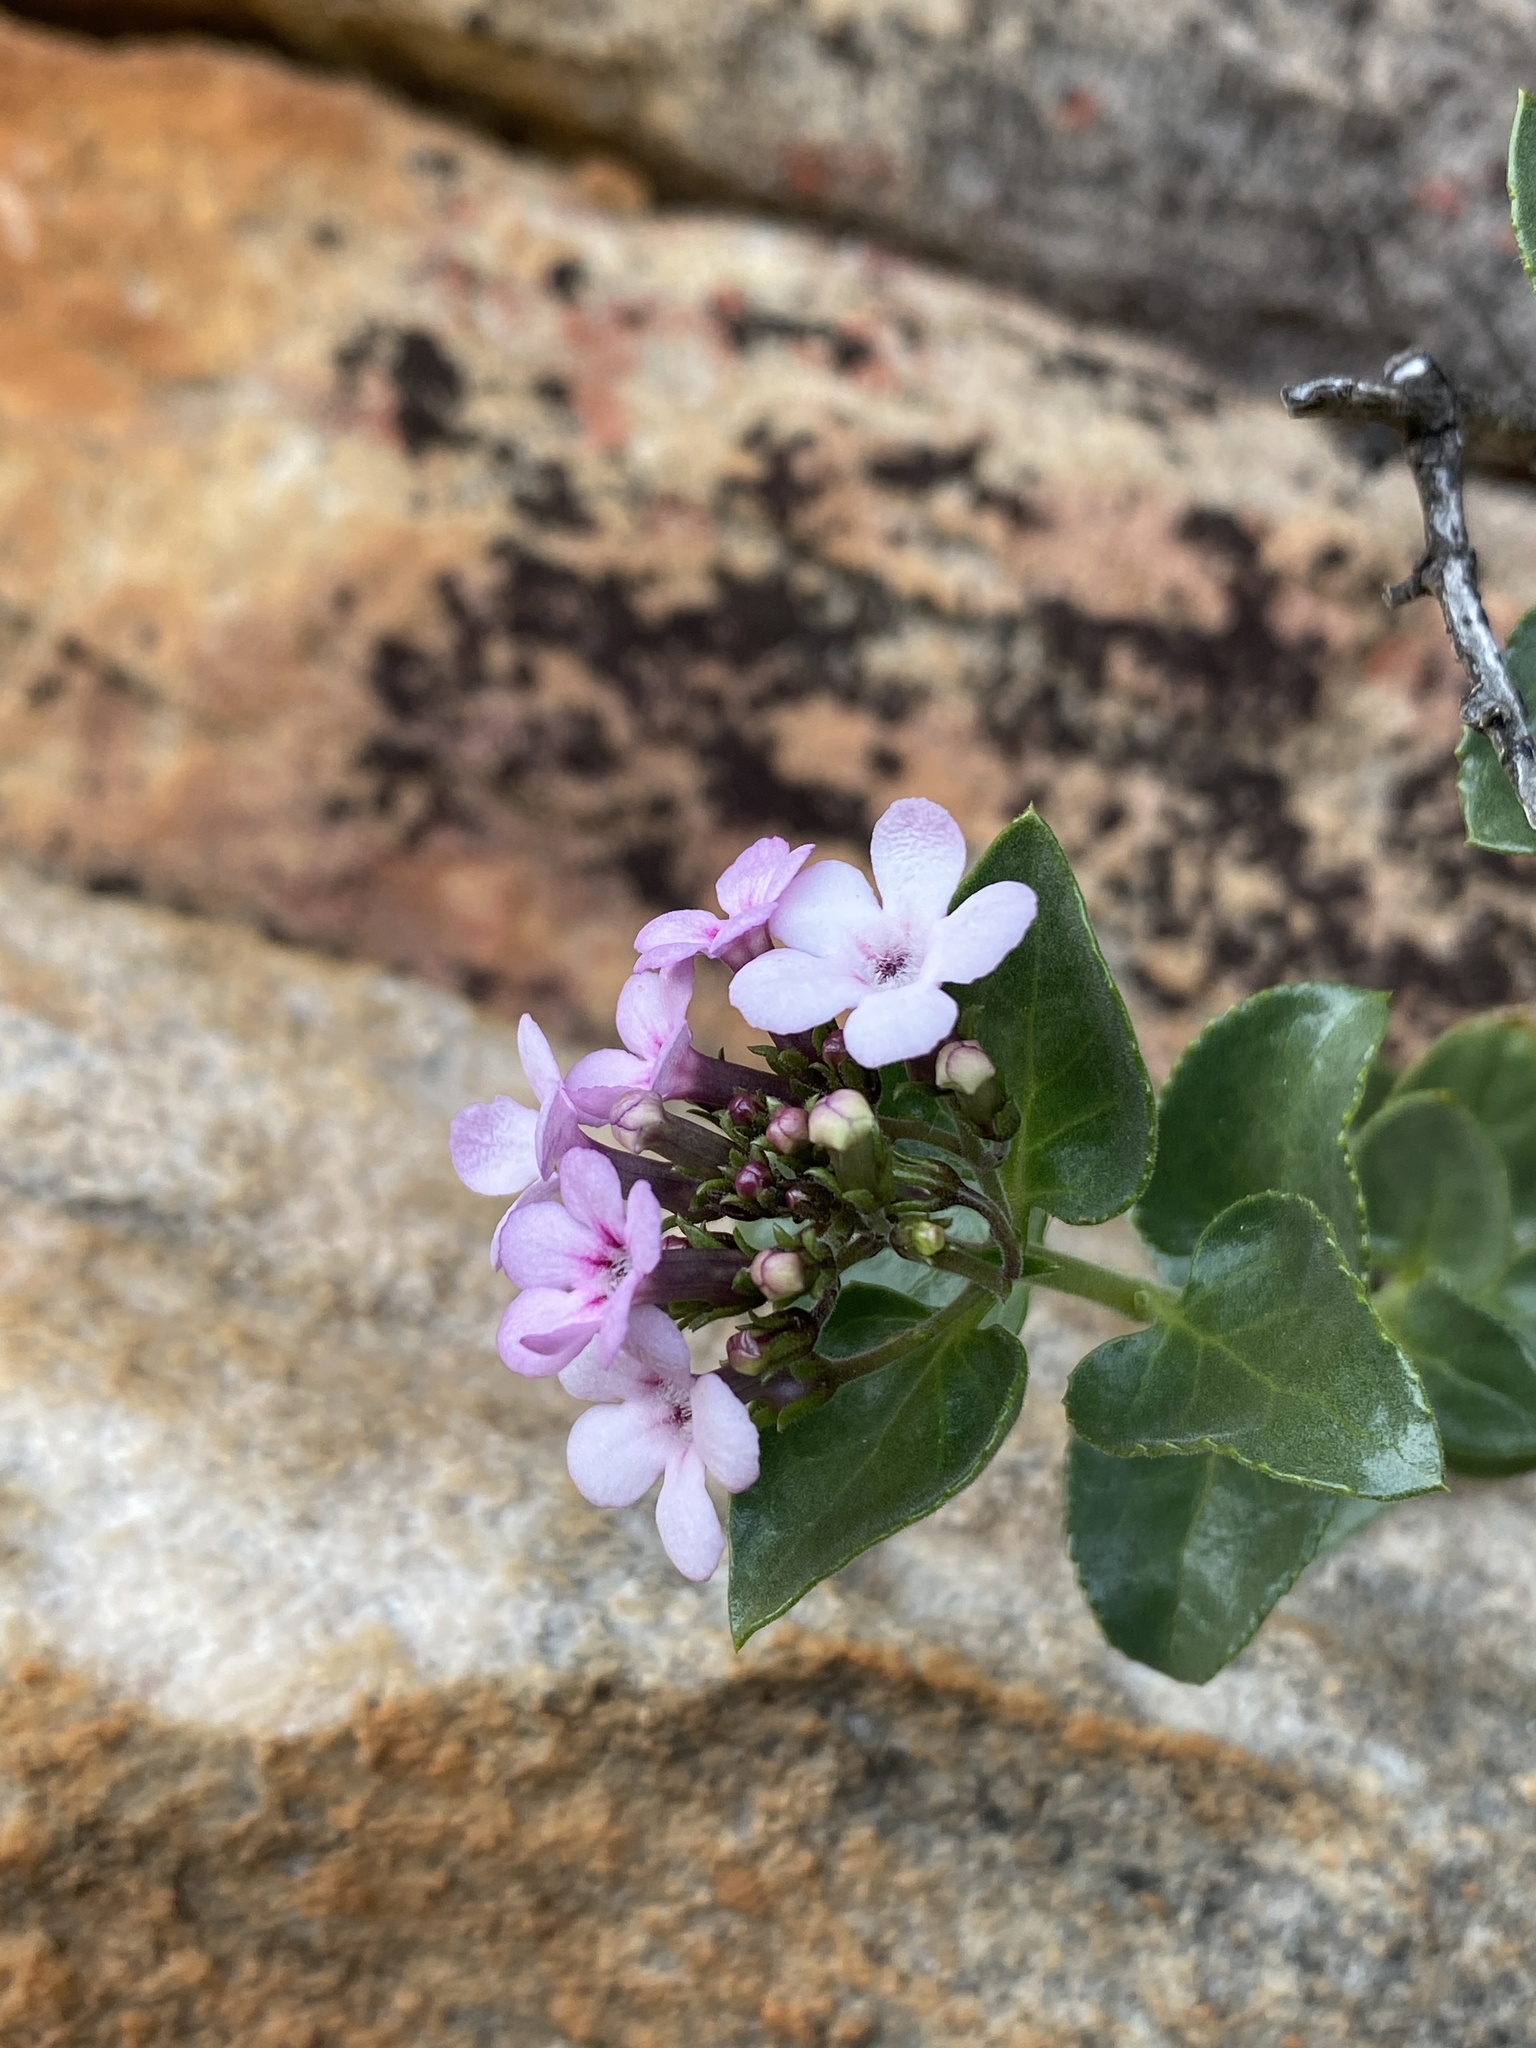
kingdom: Plantae
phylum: Tracheophyta
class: Magnoliopsida
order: Lamiales
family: Scrophulariaceae
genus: Teedia
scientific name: Teedia lucida
